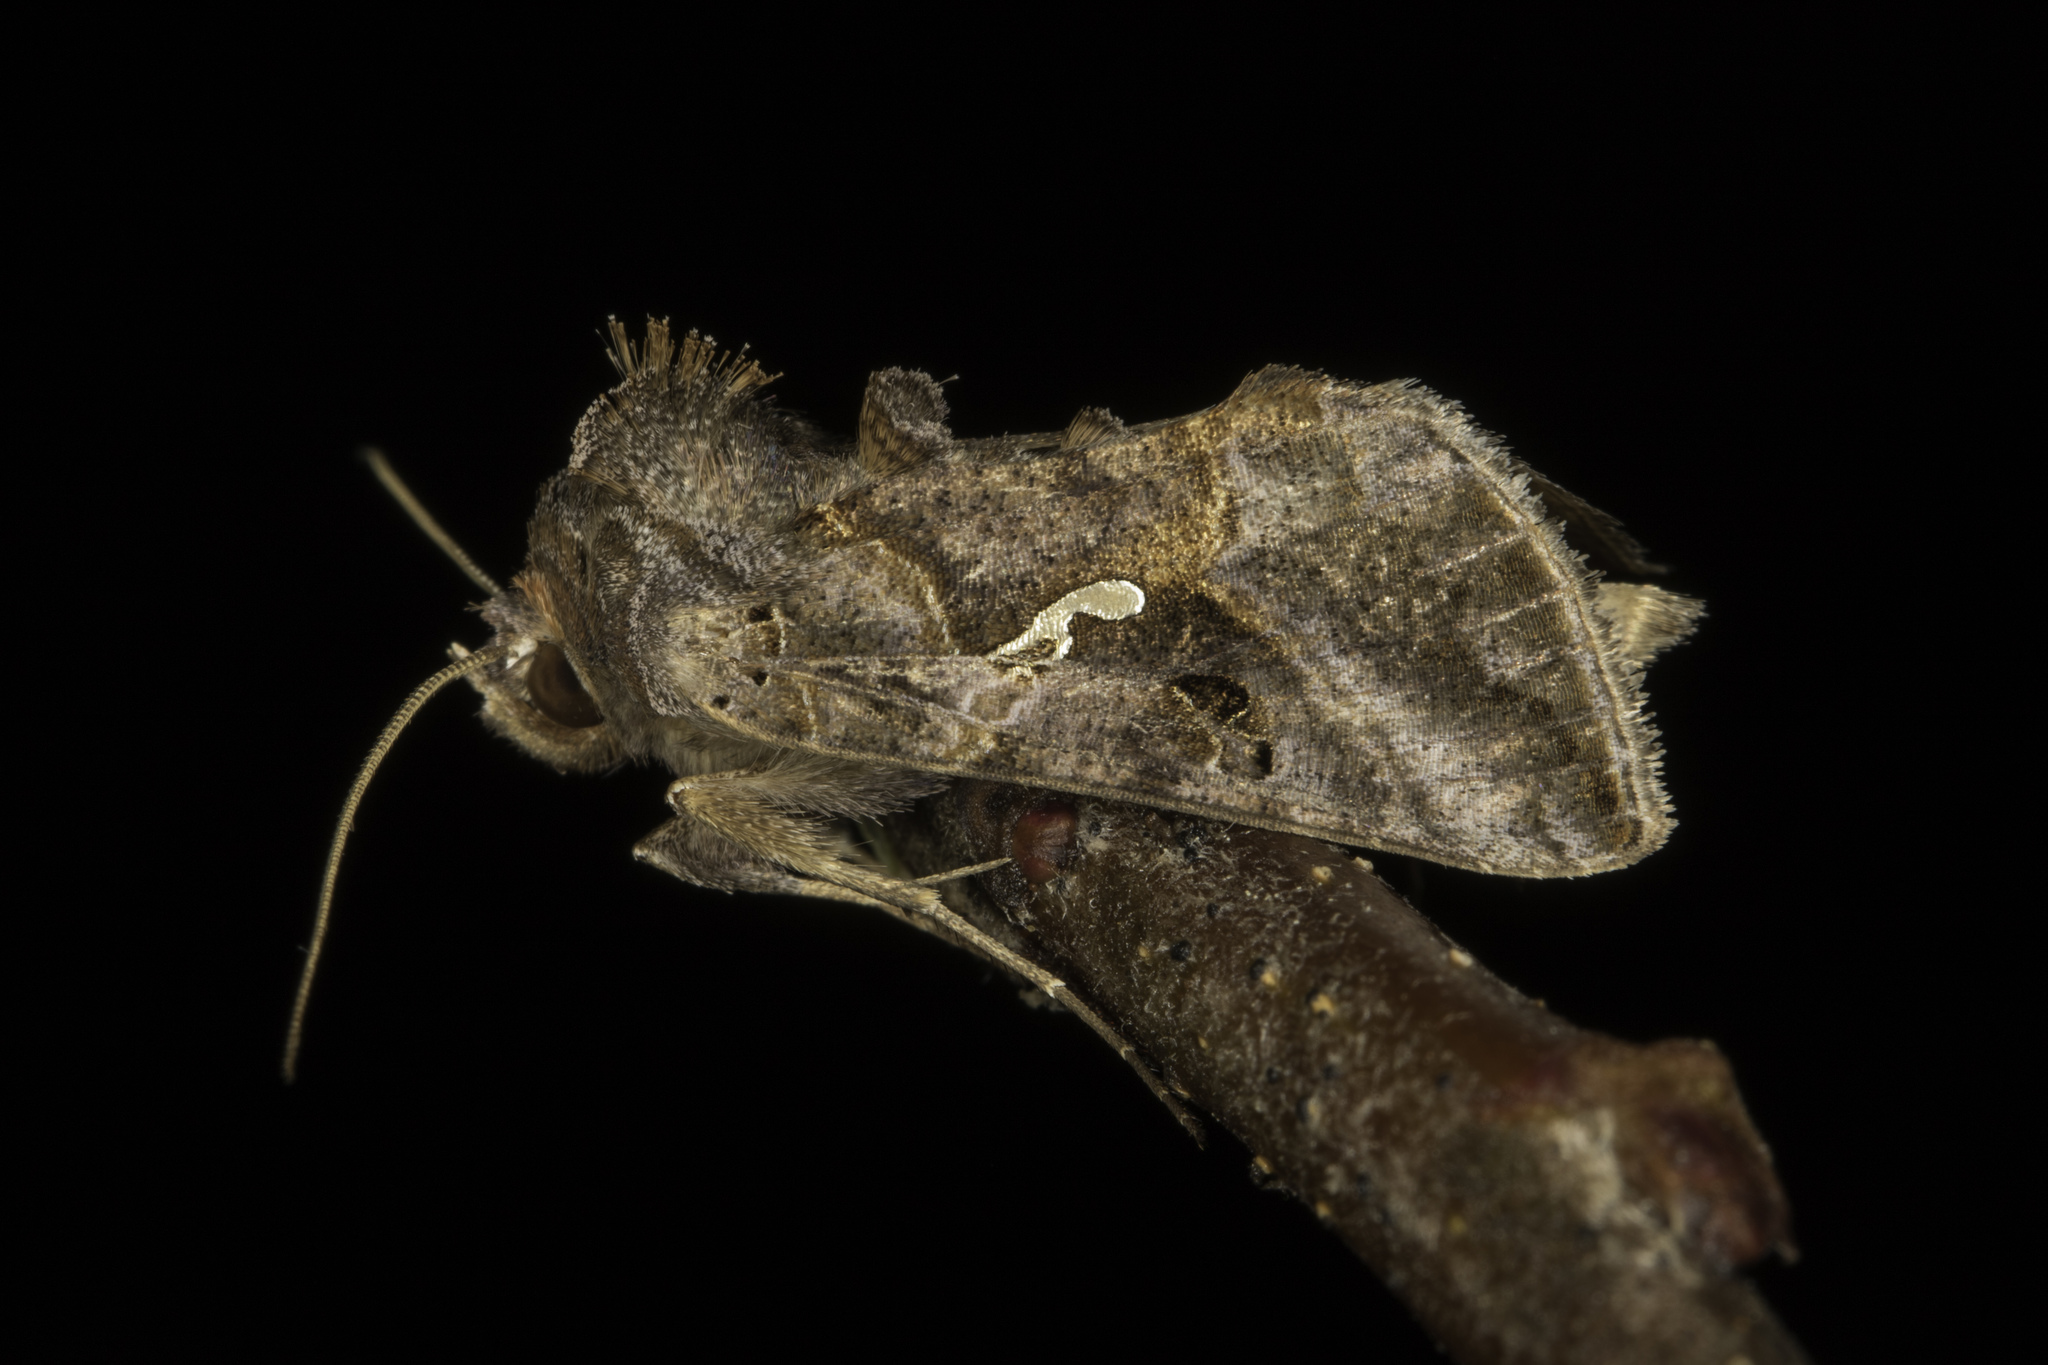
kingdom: Animalia
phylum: Arthropoda
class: Insecta
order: Lepidoptera
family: Noctuidae
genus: Autographa
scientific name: Autographa precationis
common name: Common looper moth
